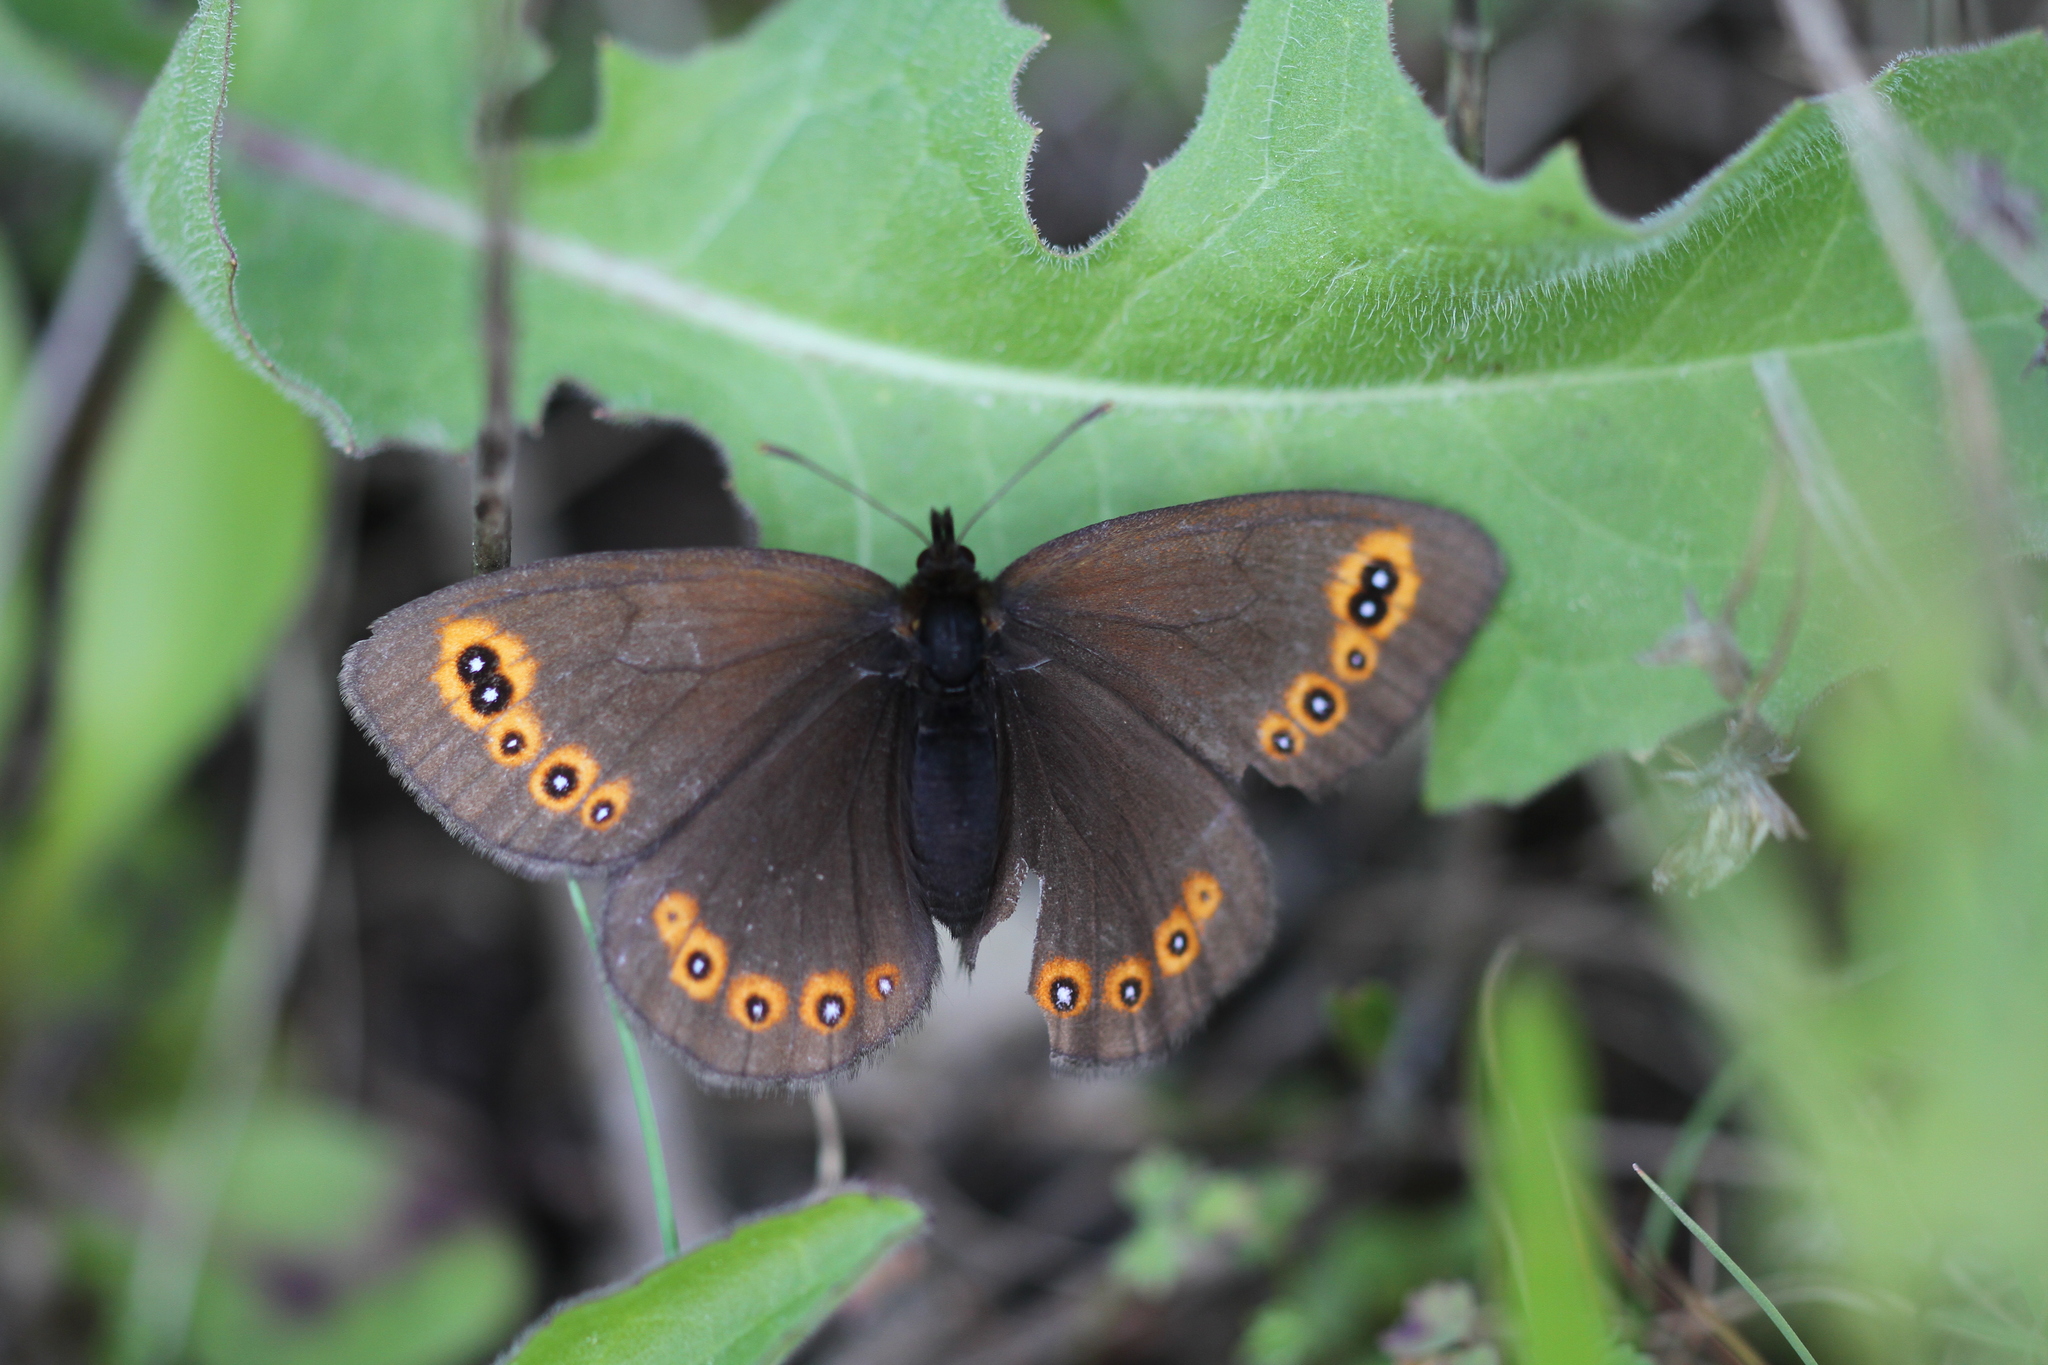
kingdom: Animalia
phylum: Arthropoda
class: Insecta
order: Lepidoptera
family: Nymphalidae
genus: Erebia
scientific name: Erebia medusa
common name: Woodland ringlet
